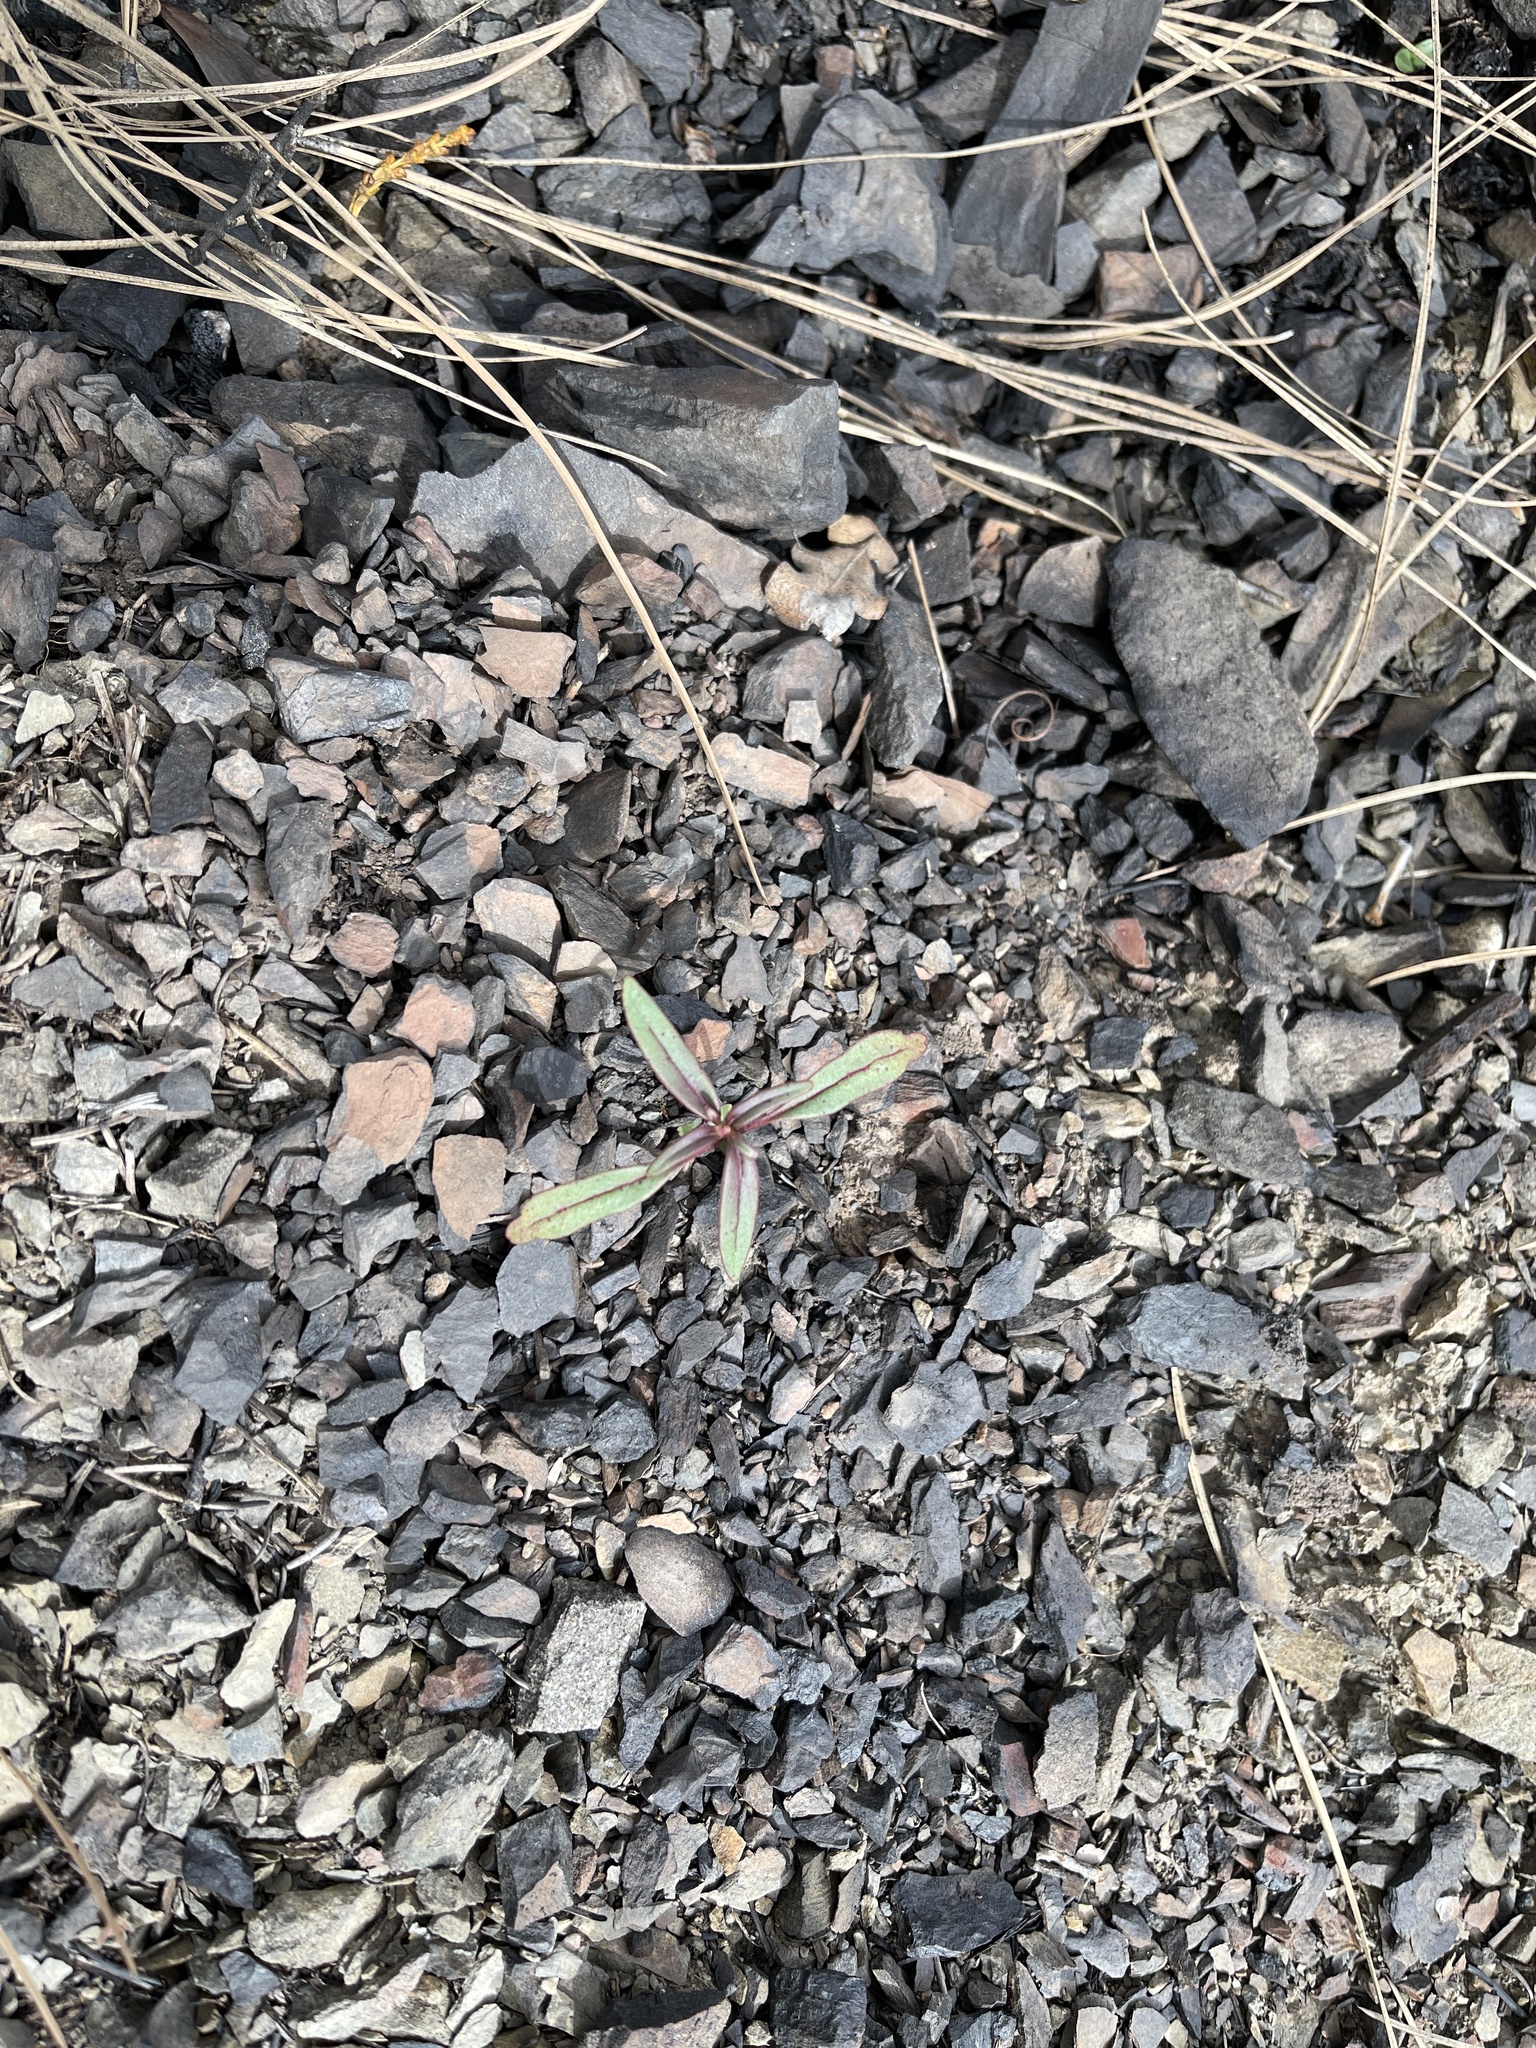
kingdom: Plantae
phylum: Tracheophyta
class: Magnoliopsida
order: Myrtales
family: Onagraceae
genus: Clarkia
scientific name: Clarkia breweri
